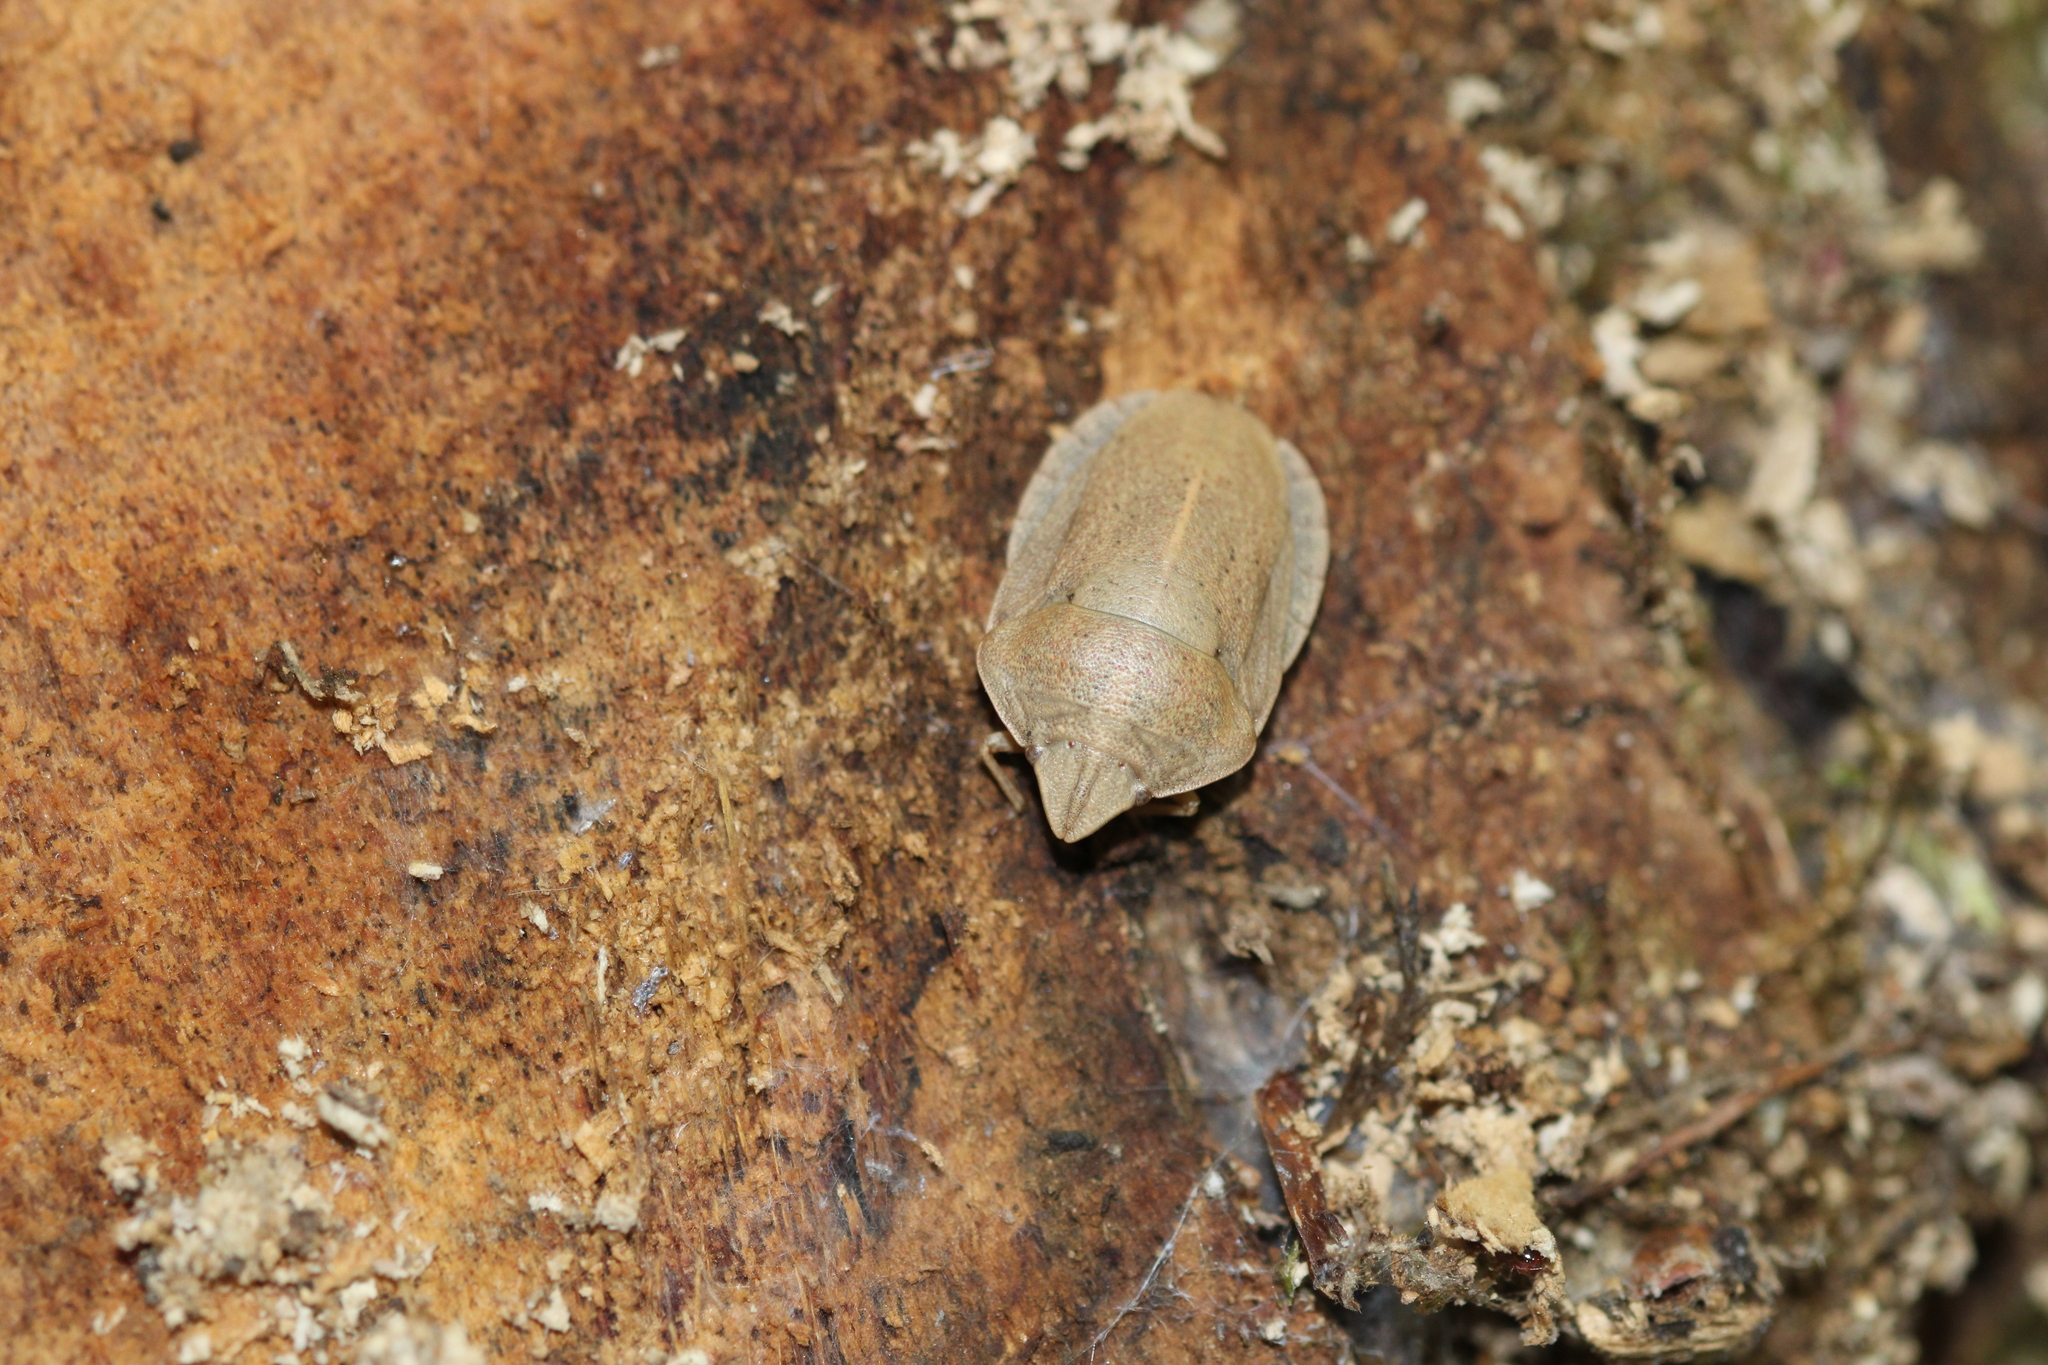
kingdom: Animalia
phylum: Arthropoda
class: Insecta
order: Hemiptera
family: Scutelleridae
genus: Eurygaster
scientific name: Eurygaster austriaca
